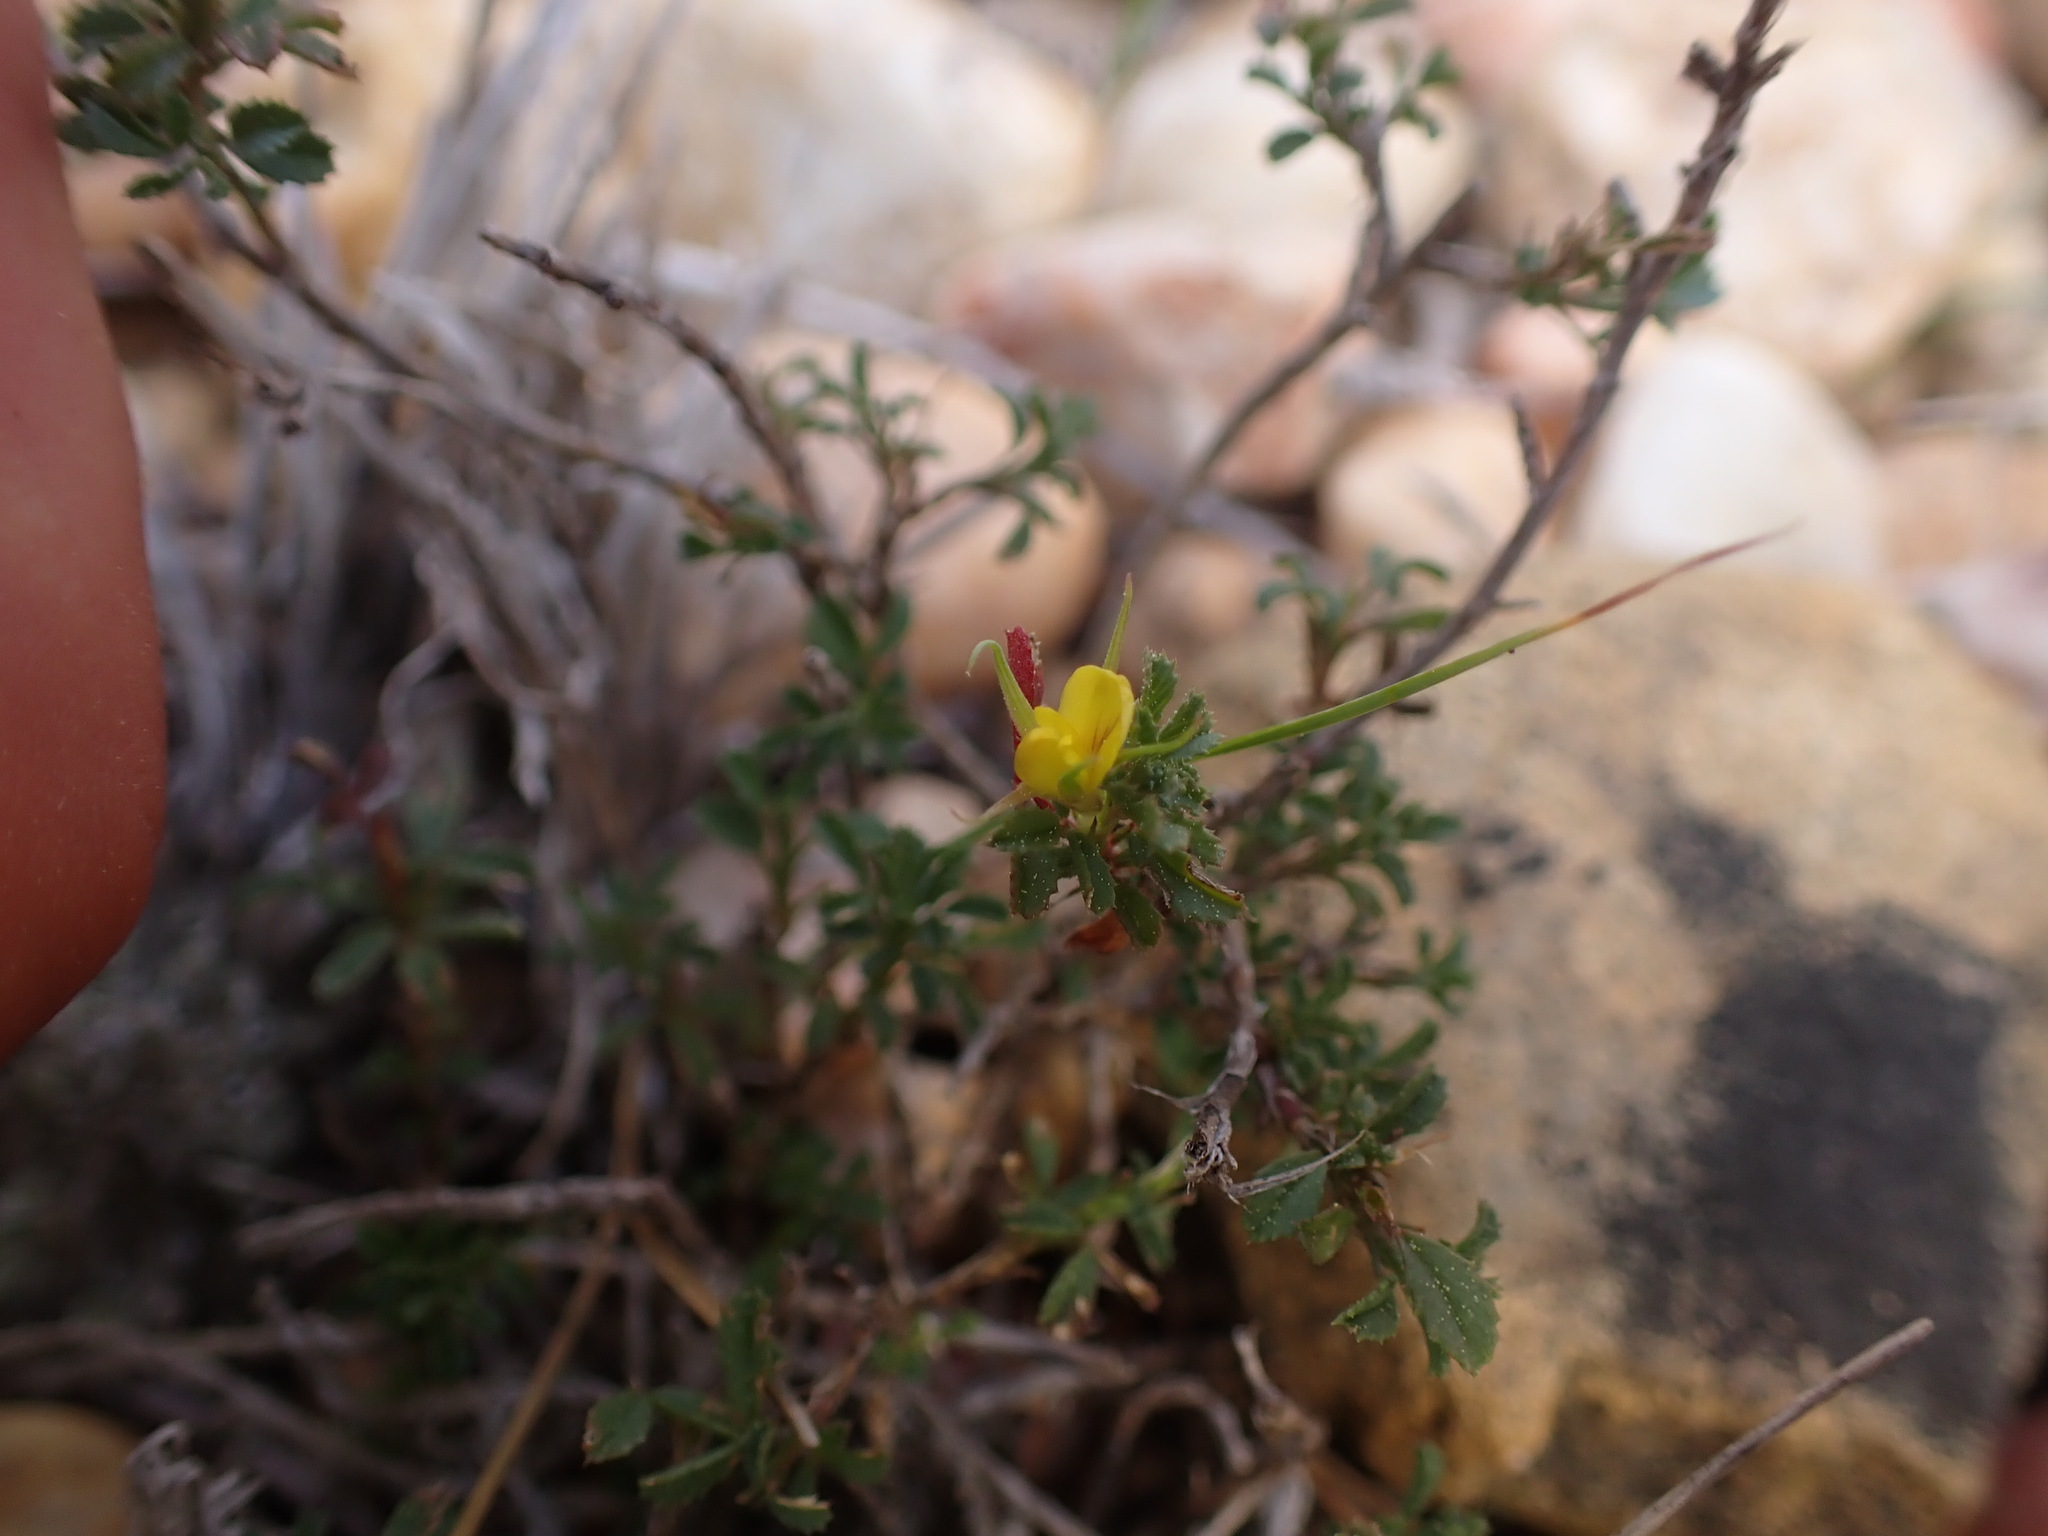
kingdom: Plantae
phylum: Tracheophyta
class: Magnoliopsida
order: Fabales
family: Fabaceae
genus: Ononis
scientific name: Ononis minutissima
